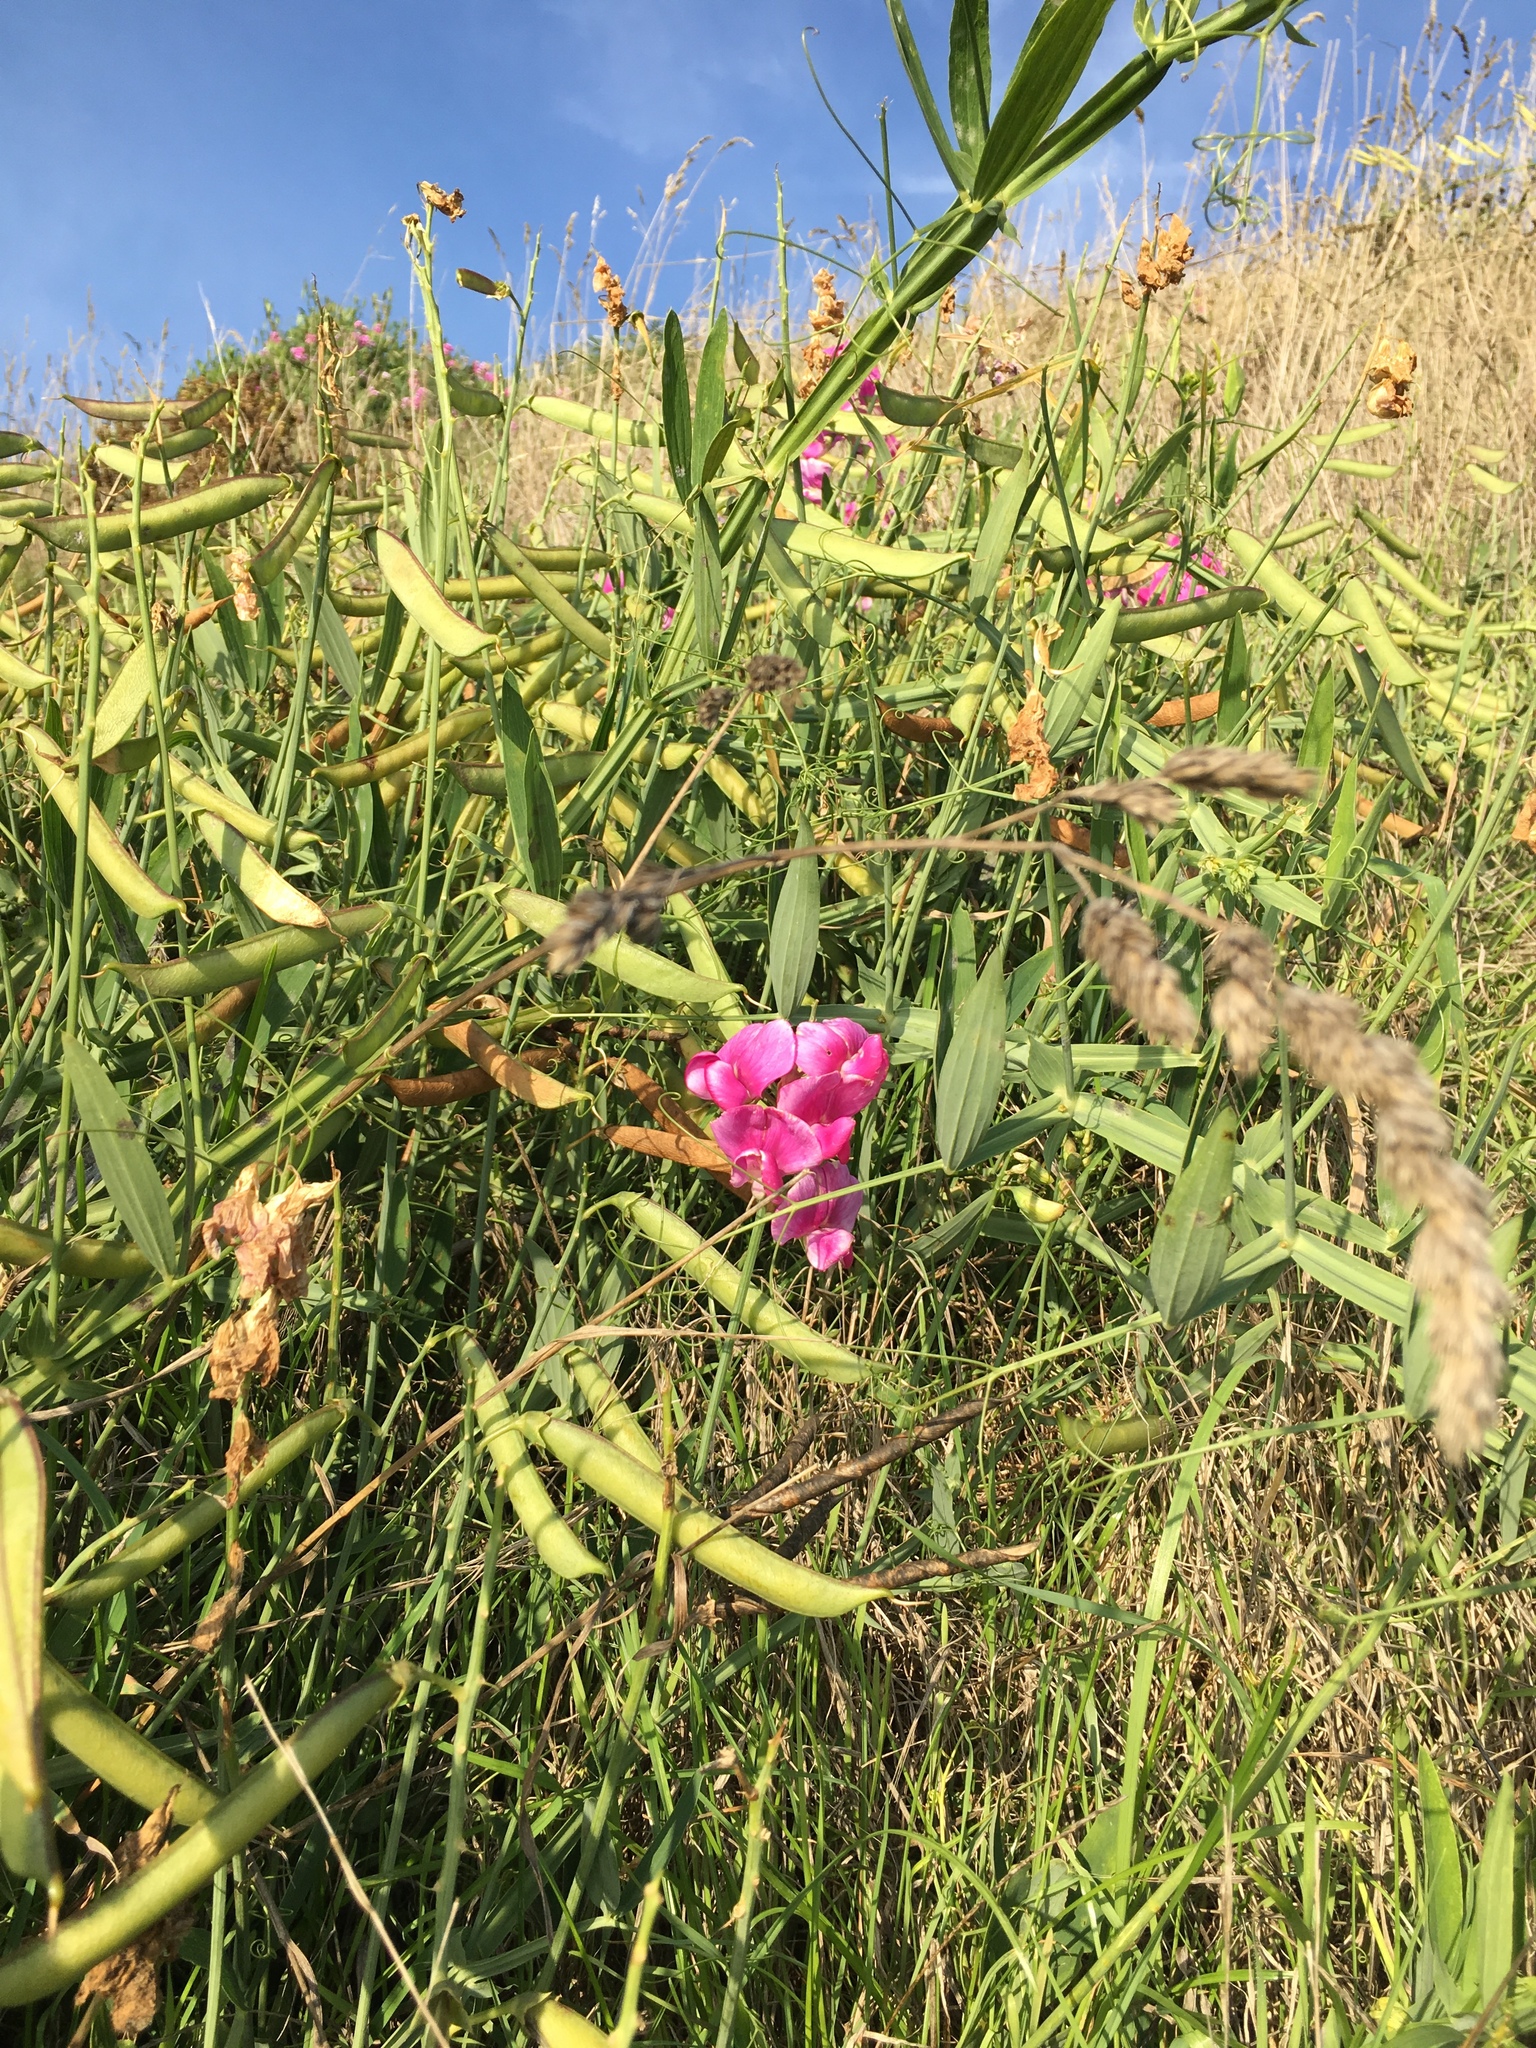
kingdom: Plantae
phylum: Tracheophyta
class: Magnoliopsida
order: Fabales
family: Fabaceae
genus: Lathyrus
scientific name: Lathyrus latifolius
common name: Perennial pea
